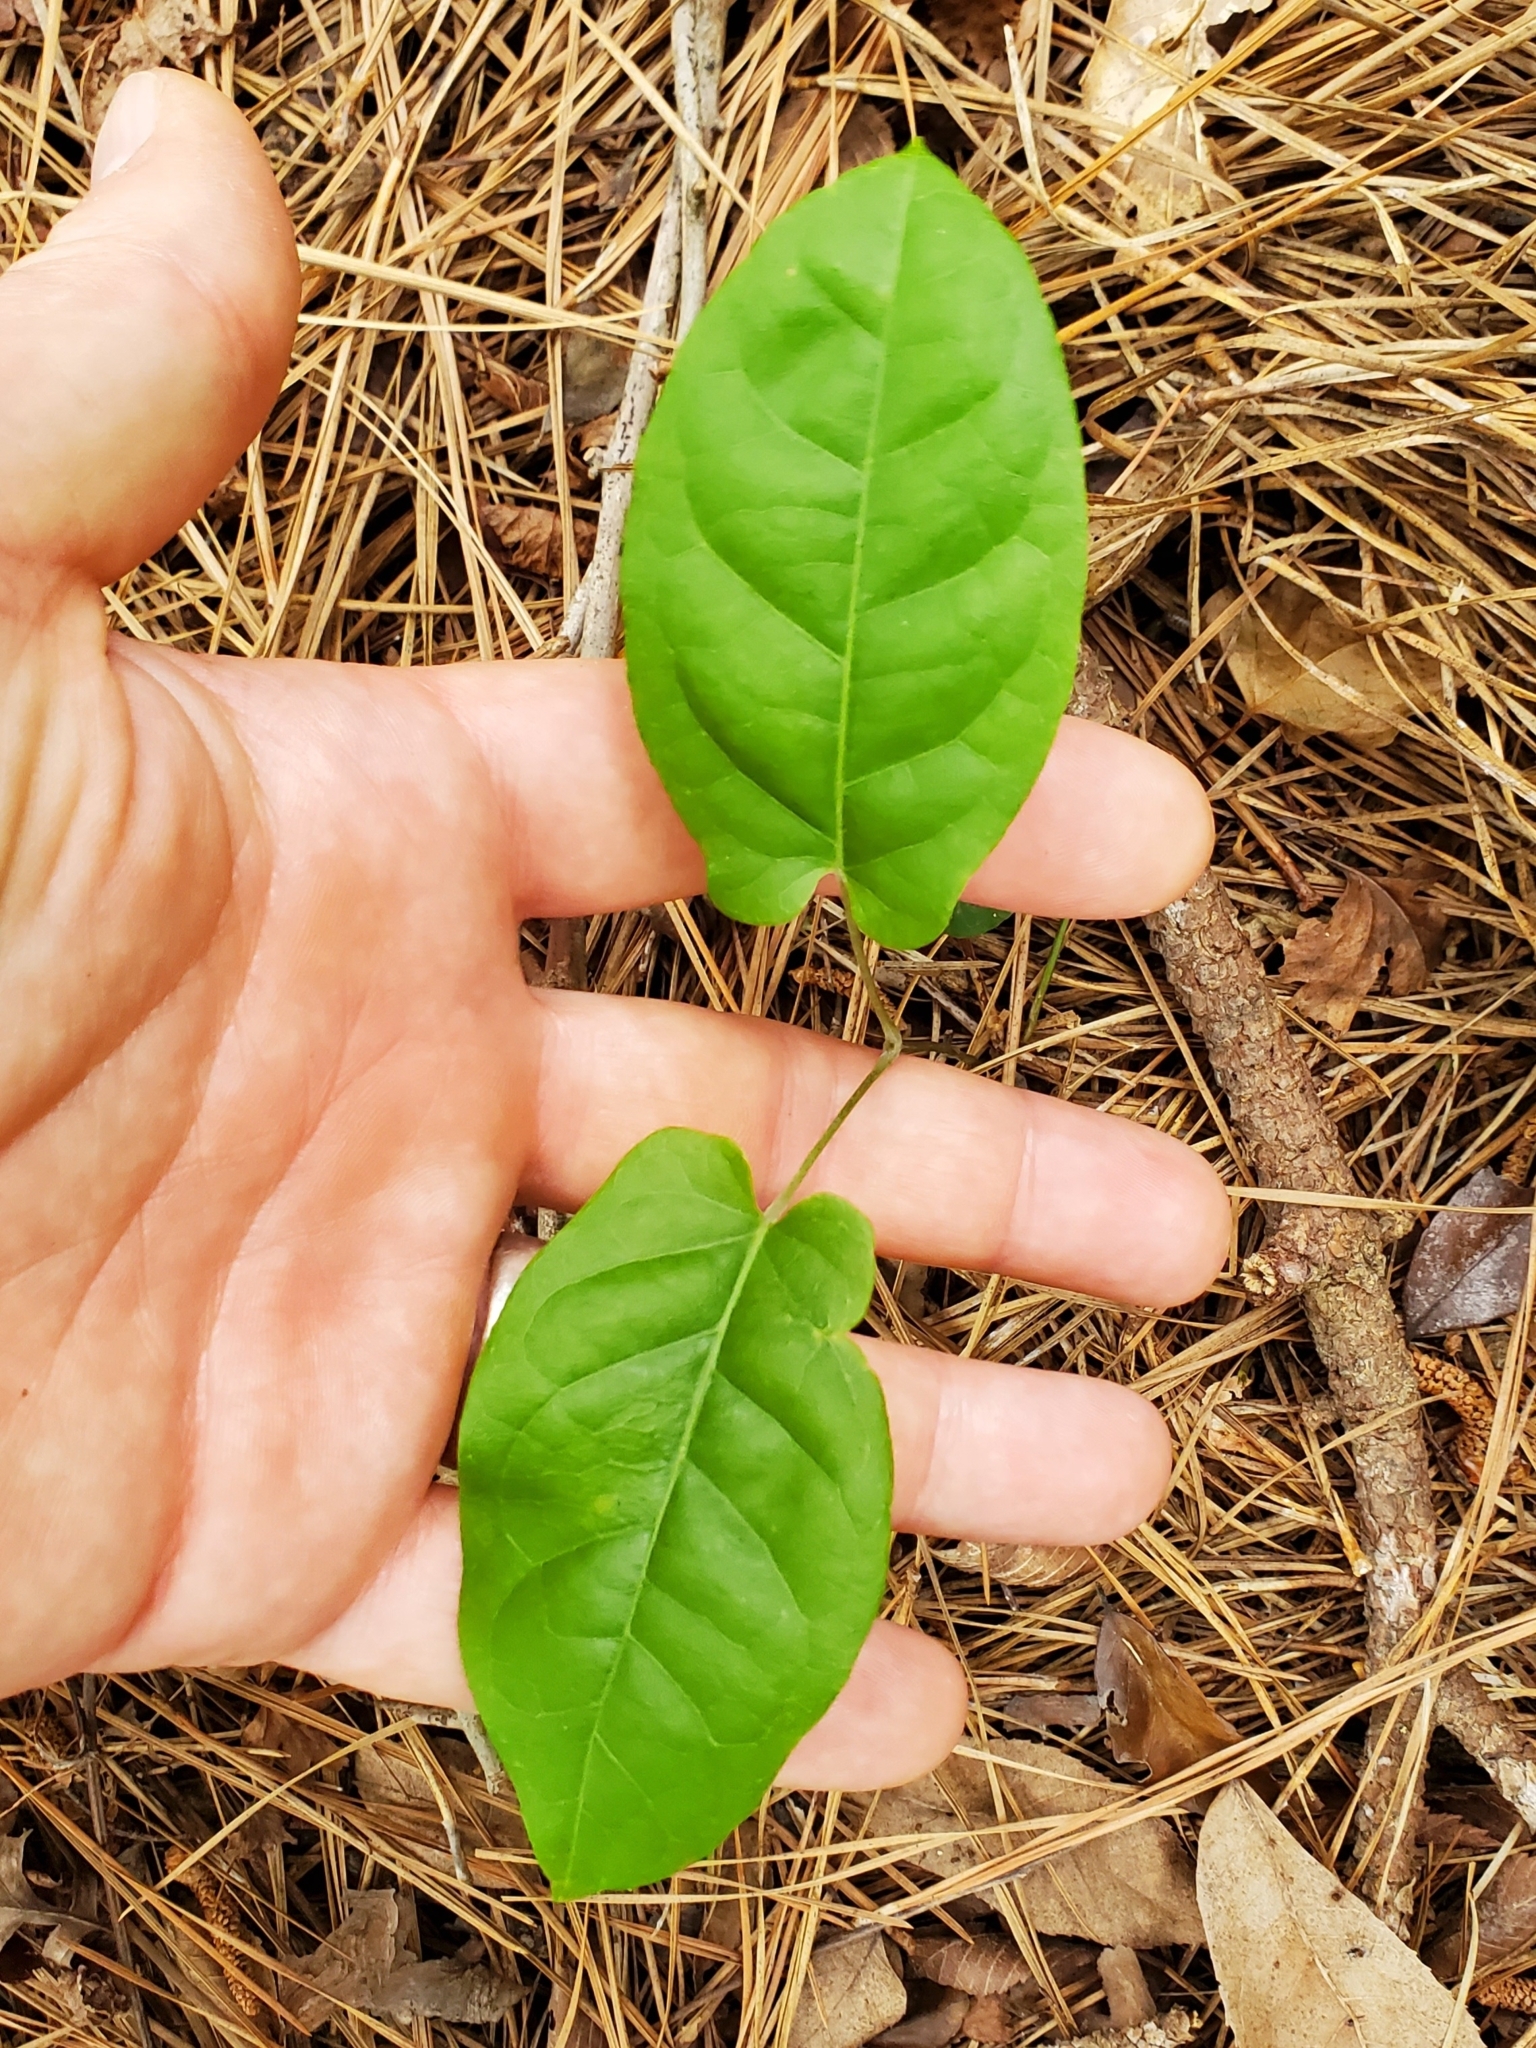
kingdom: Plantae
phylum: Tracheophyta
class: Magnoliopsida
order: Lamiales
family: Bignoniaceae
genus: Bignonia
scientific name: Bignonia capreolata
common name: Crossvine
